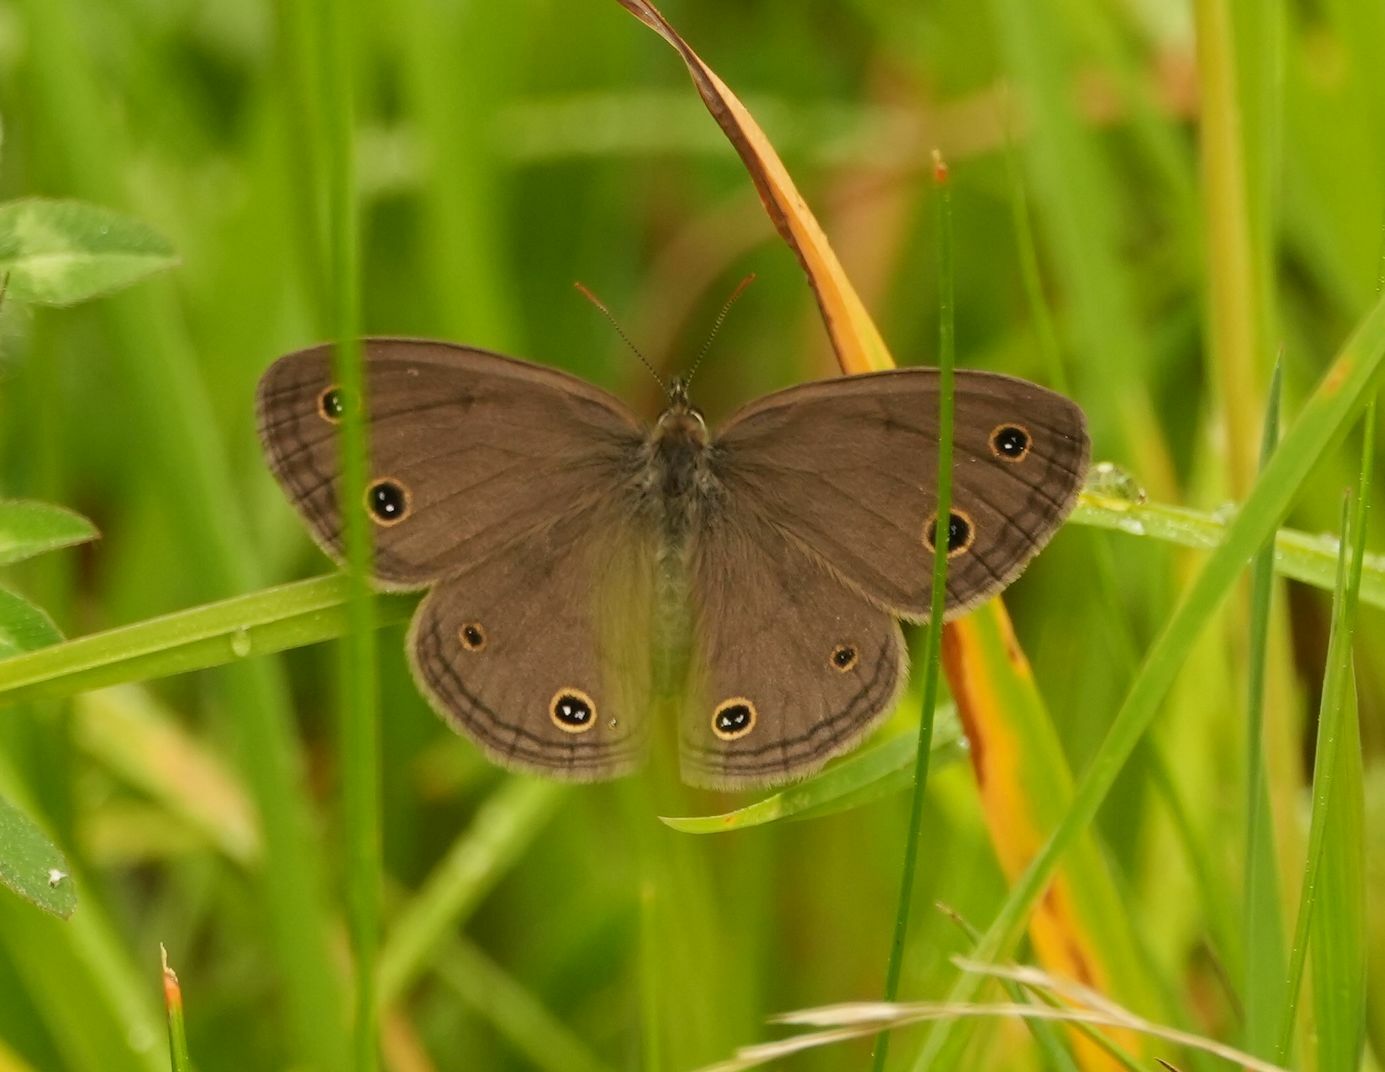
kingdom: Animalia
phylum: Arthropoda
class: Insecta
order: Lepidoptera
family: Nymphalidae
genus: Euptychia
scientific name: Euptychia cymela
